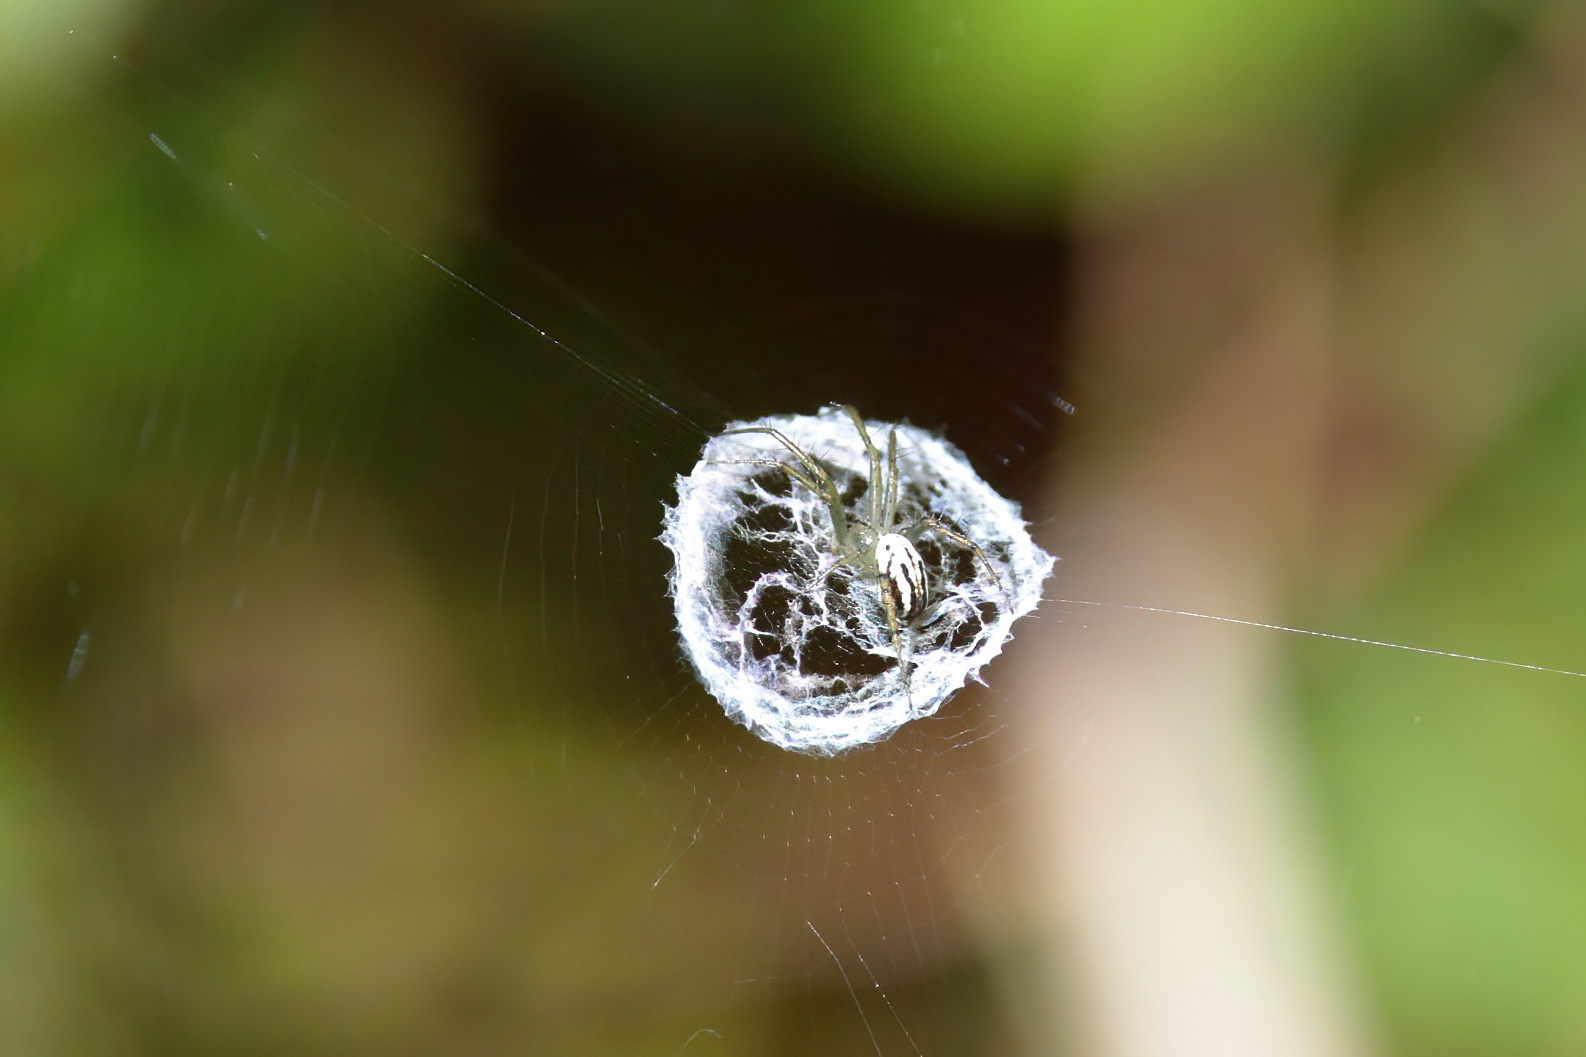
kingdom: Animalia
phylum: Arthropoda
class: Arachnida
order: Araneae
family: Araneidae
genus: Mangora
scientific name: Mangora gibberosa
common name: Lined orbweaver
